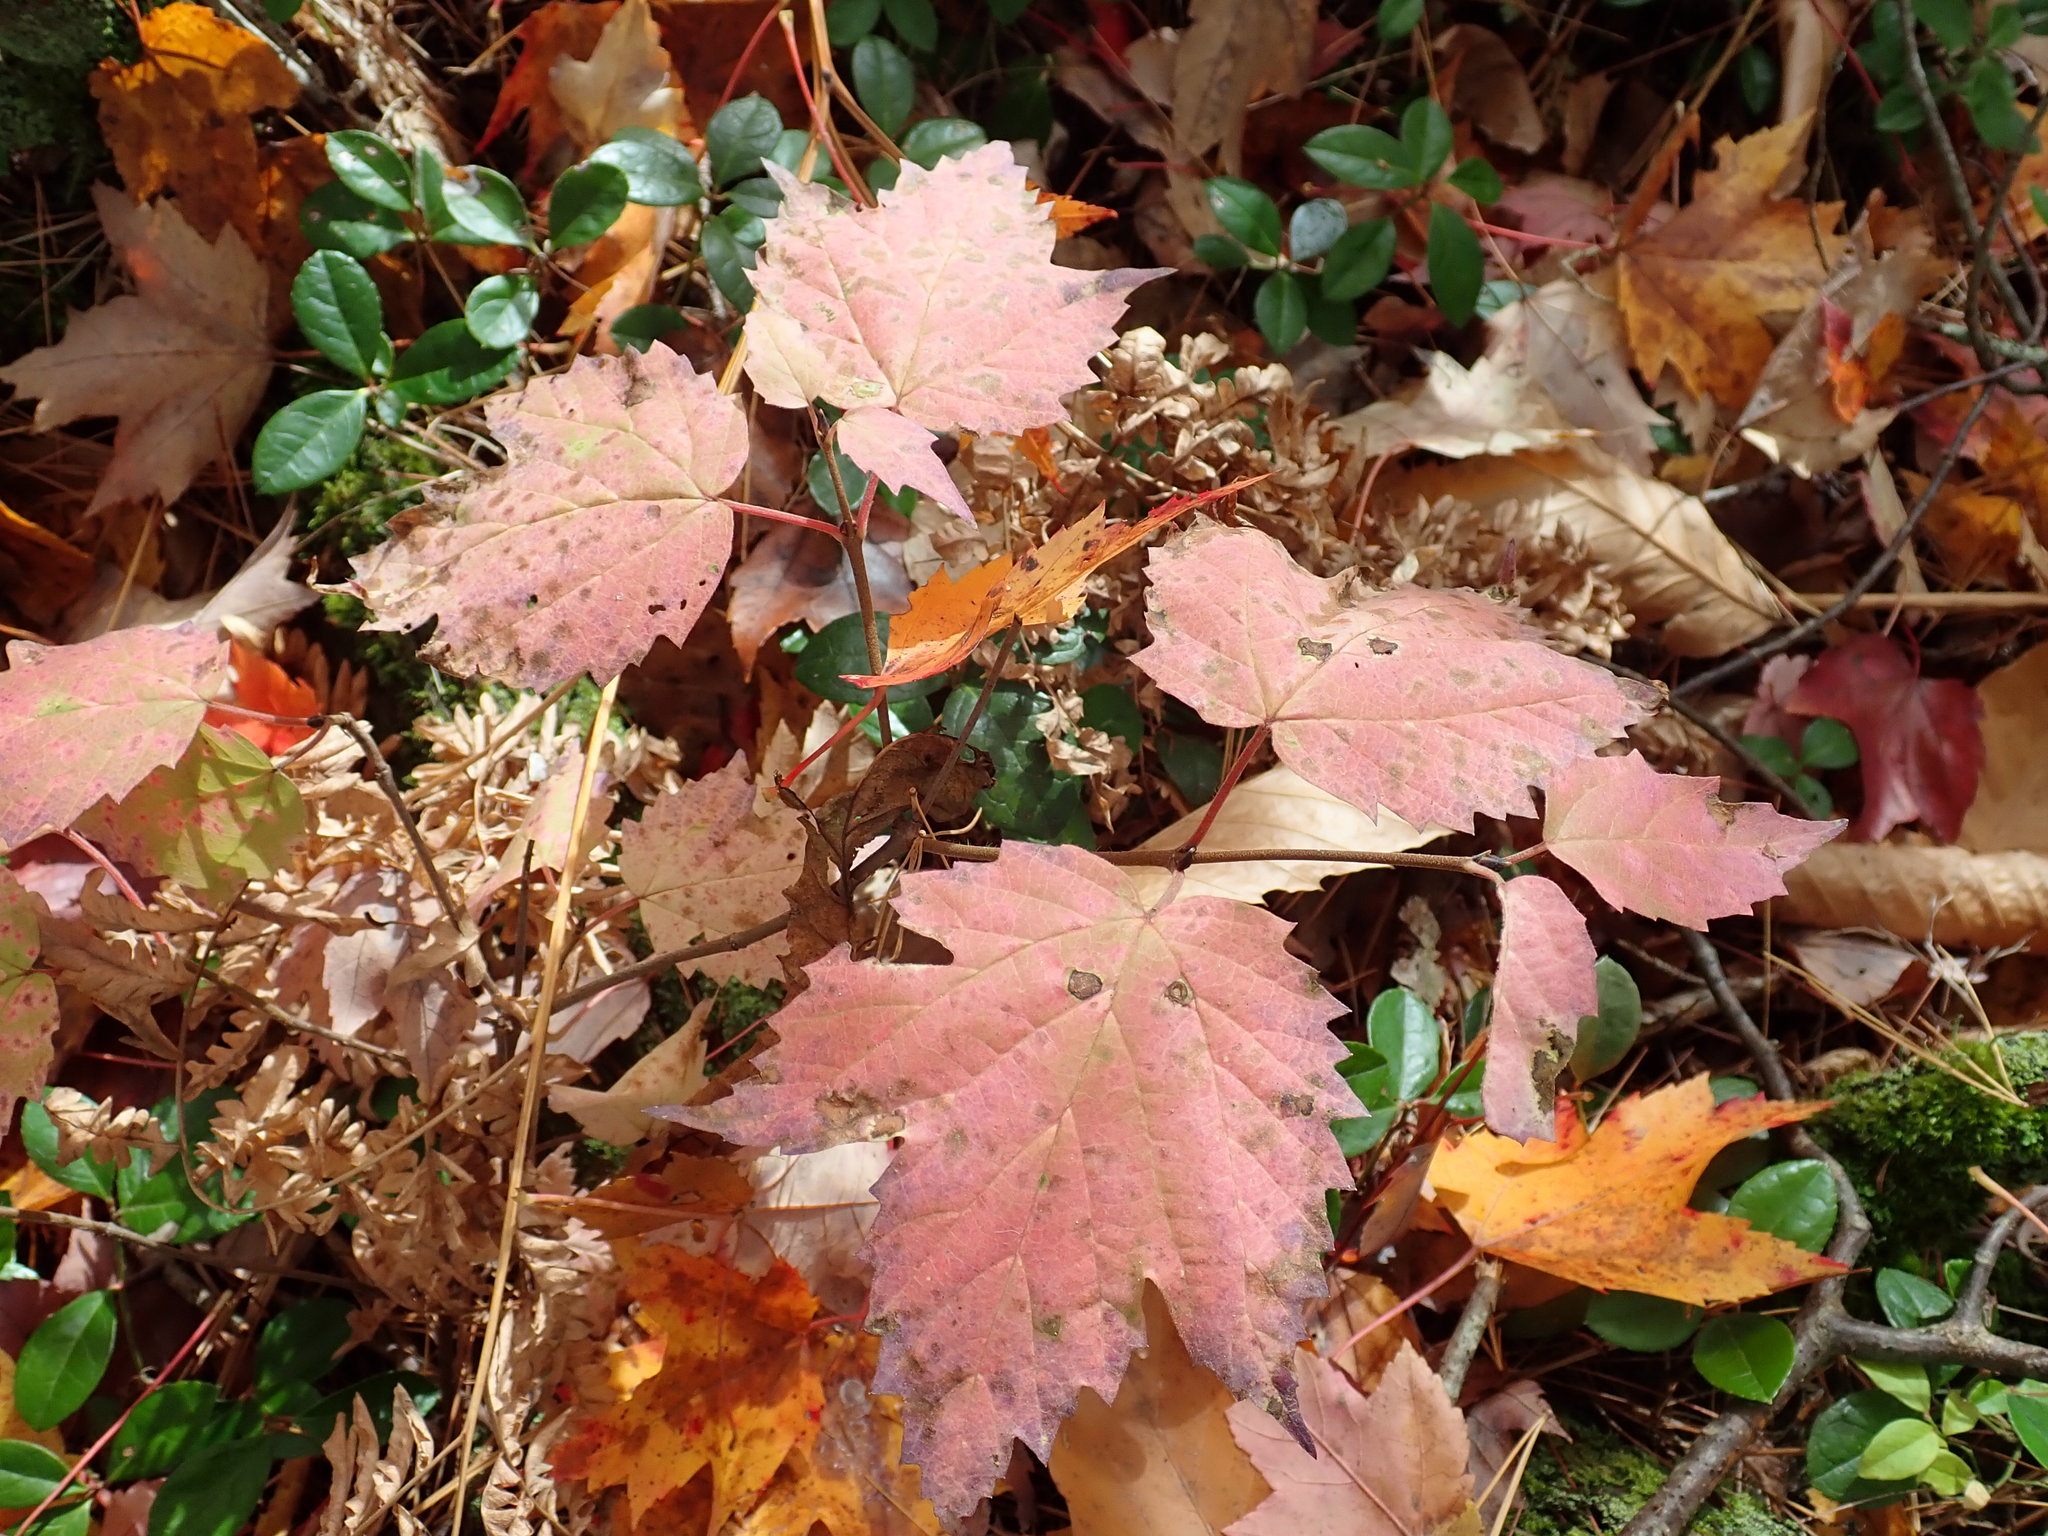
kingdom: Plantae
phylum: Tracheophyta
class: Magnoliopsida
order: Dipsacales
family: Viburnaceae
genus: Viburnum
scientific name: Viburnum acerifolium
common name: Dockmackie
